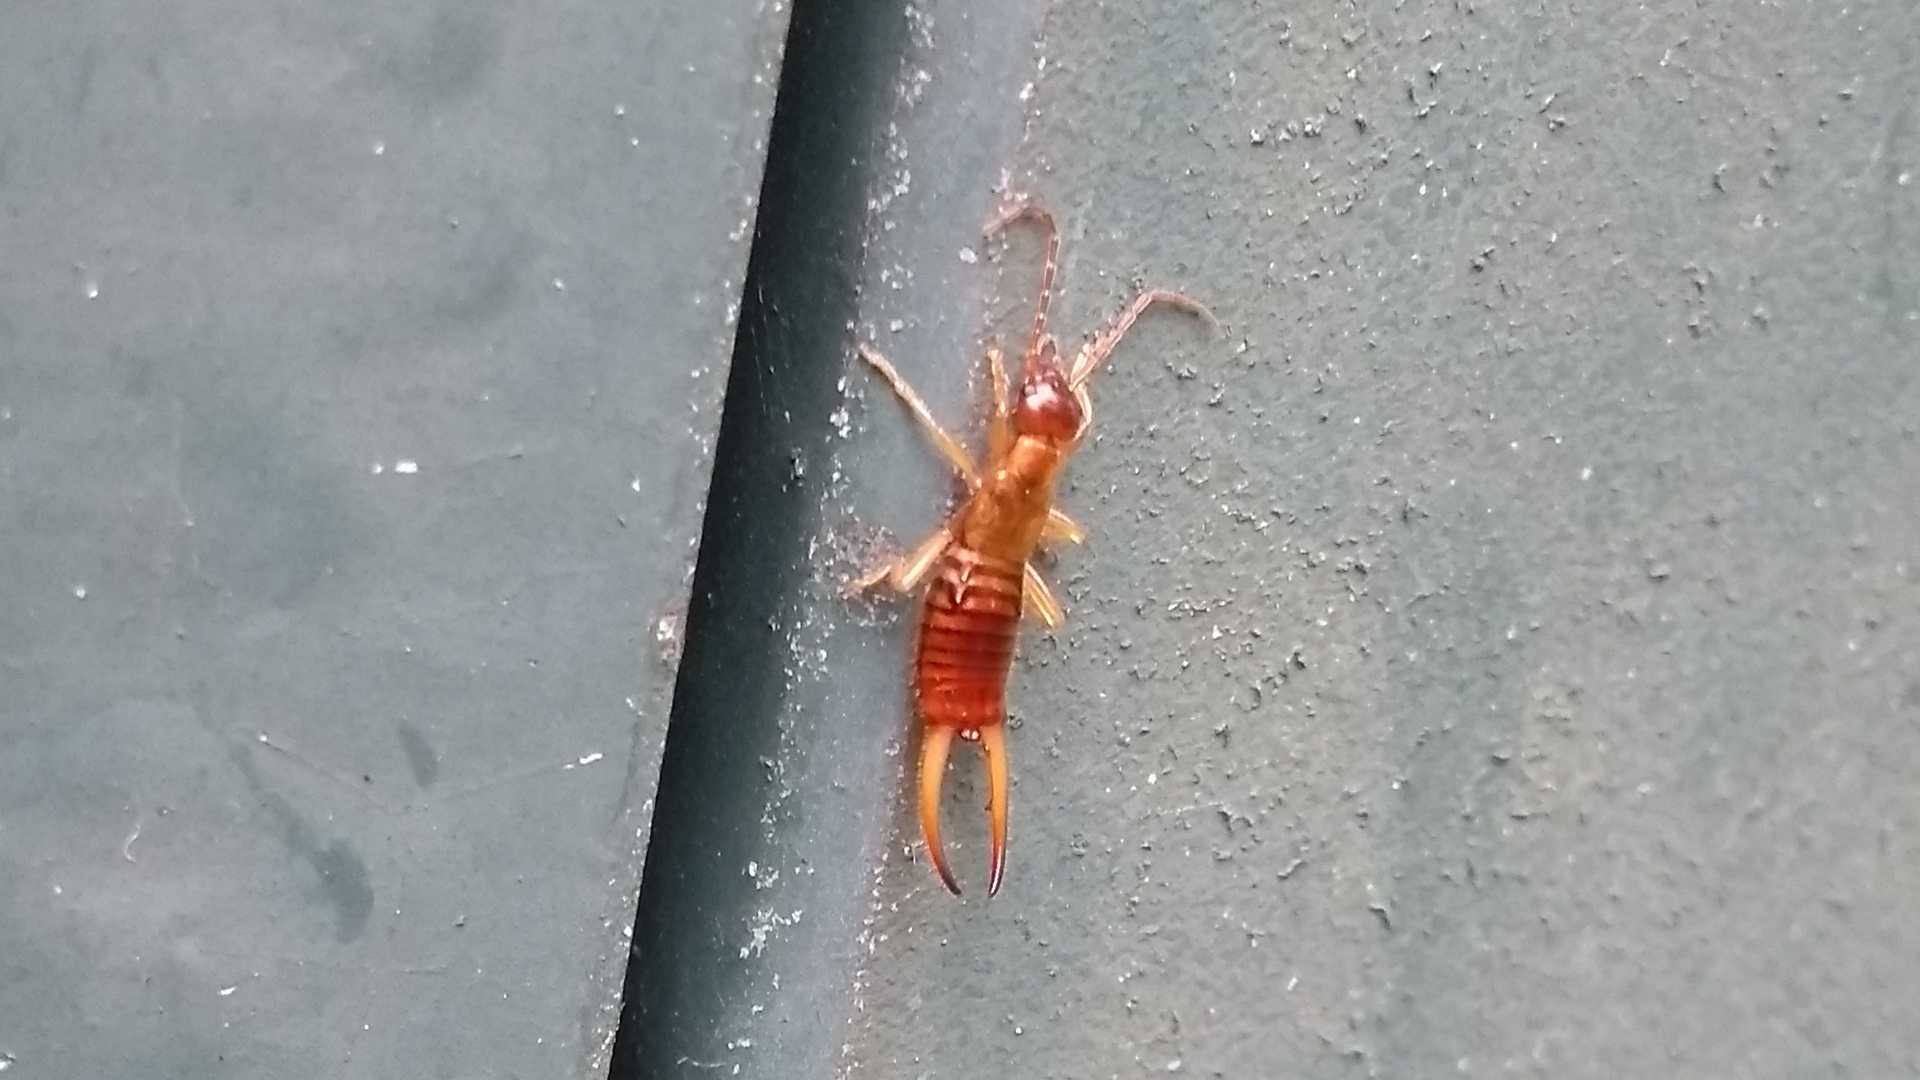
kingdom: Animalia
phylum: Arthropoda
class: Insecta
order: Dermaptera
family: Forficulidae
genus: Apterygida
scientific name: Apterygida albipennis
